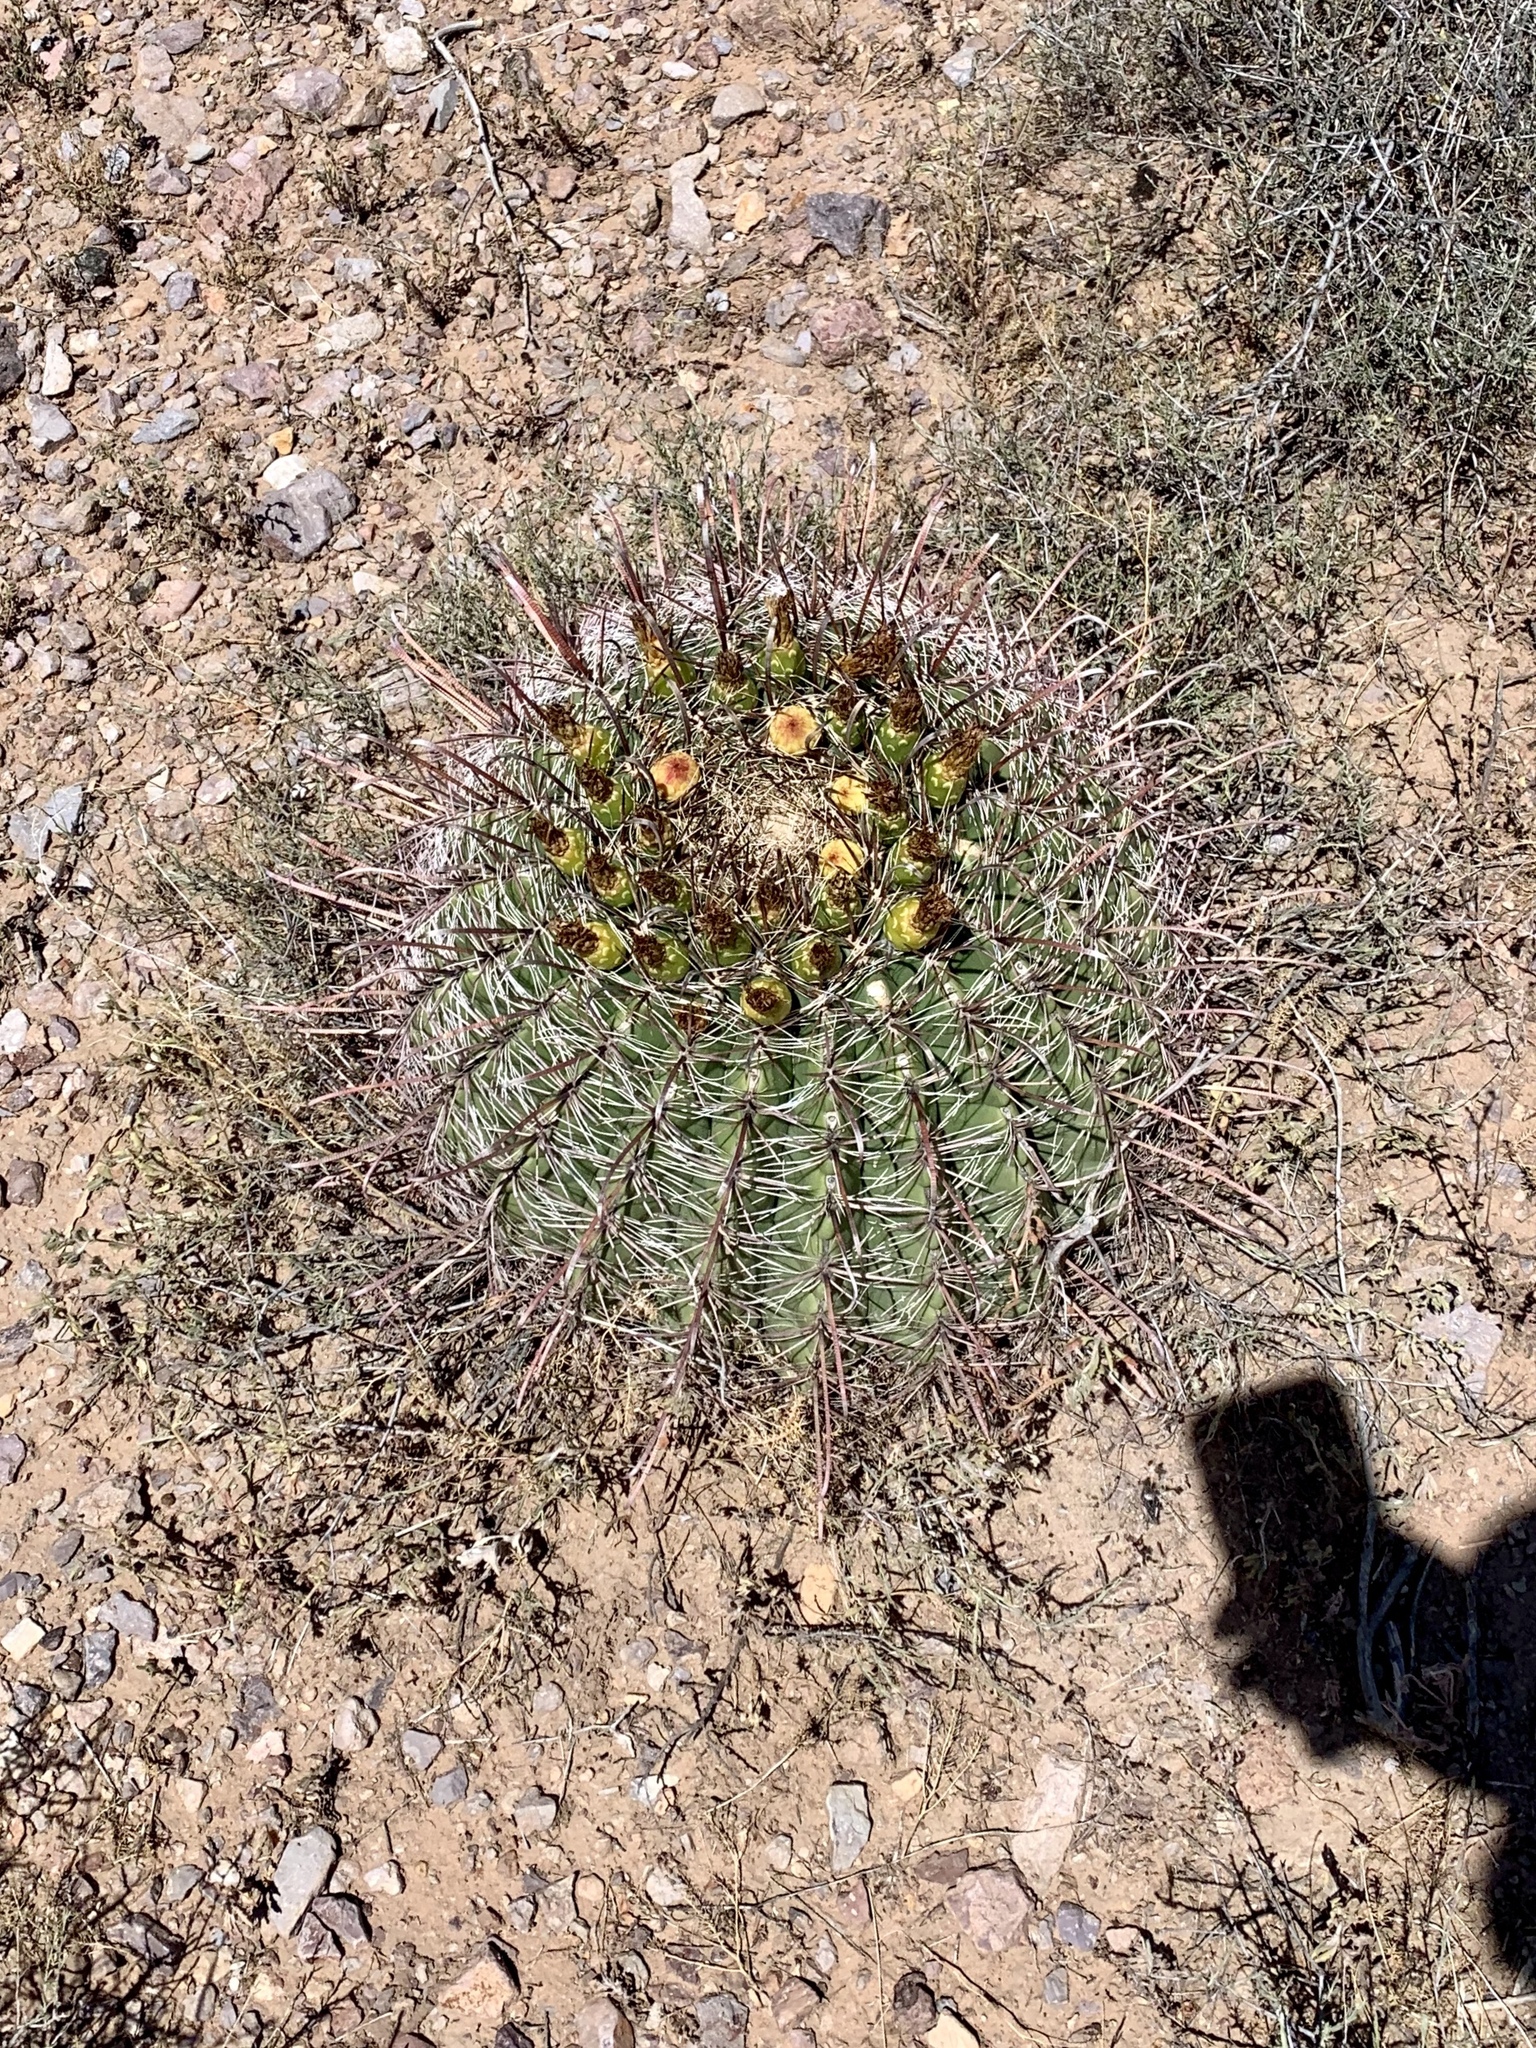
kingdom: Plantae
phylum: Tracheophyta
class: Magnoliopsida
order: Caryophyllales
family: Cactaceae
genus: Ferocactus
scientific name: Ferocactus wislizeni
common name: Candy barrel cactus
